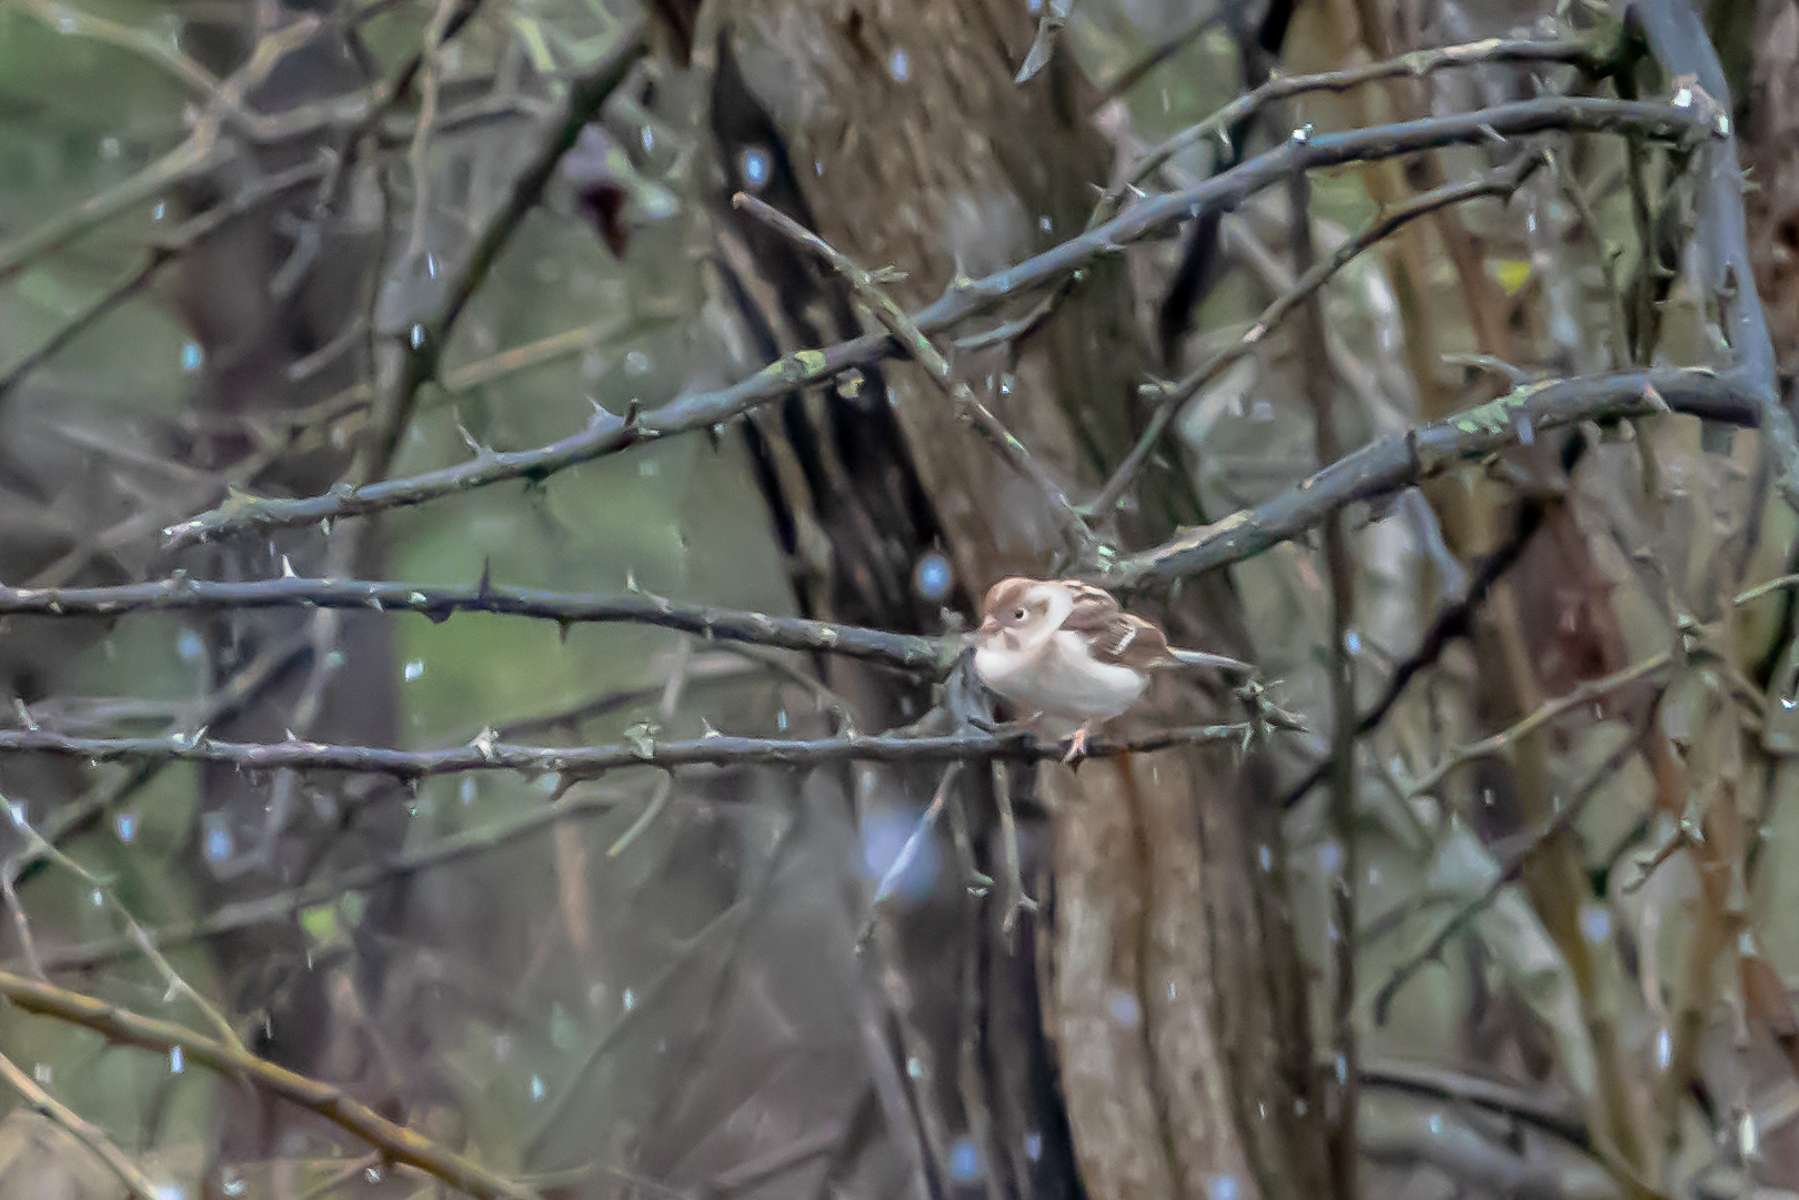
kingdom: Animalia
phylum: Chordata
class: Aves
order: Passeriformes
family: Passerellidae
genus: Spizella
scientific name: Spizella pusilla
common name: Field sparrow
